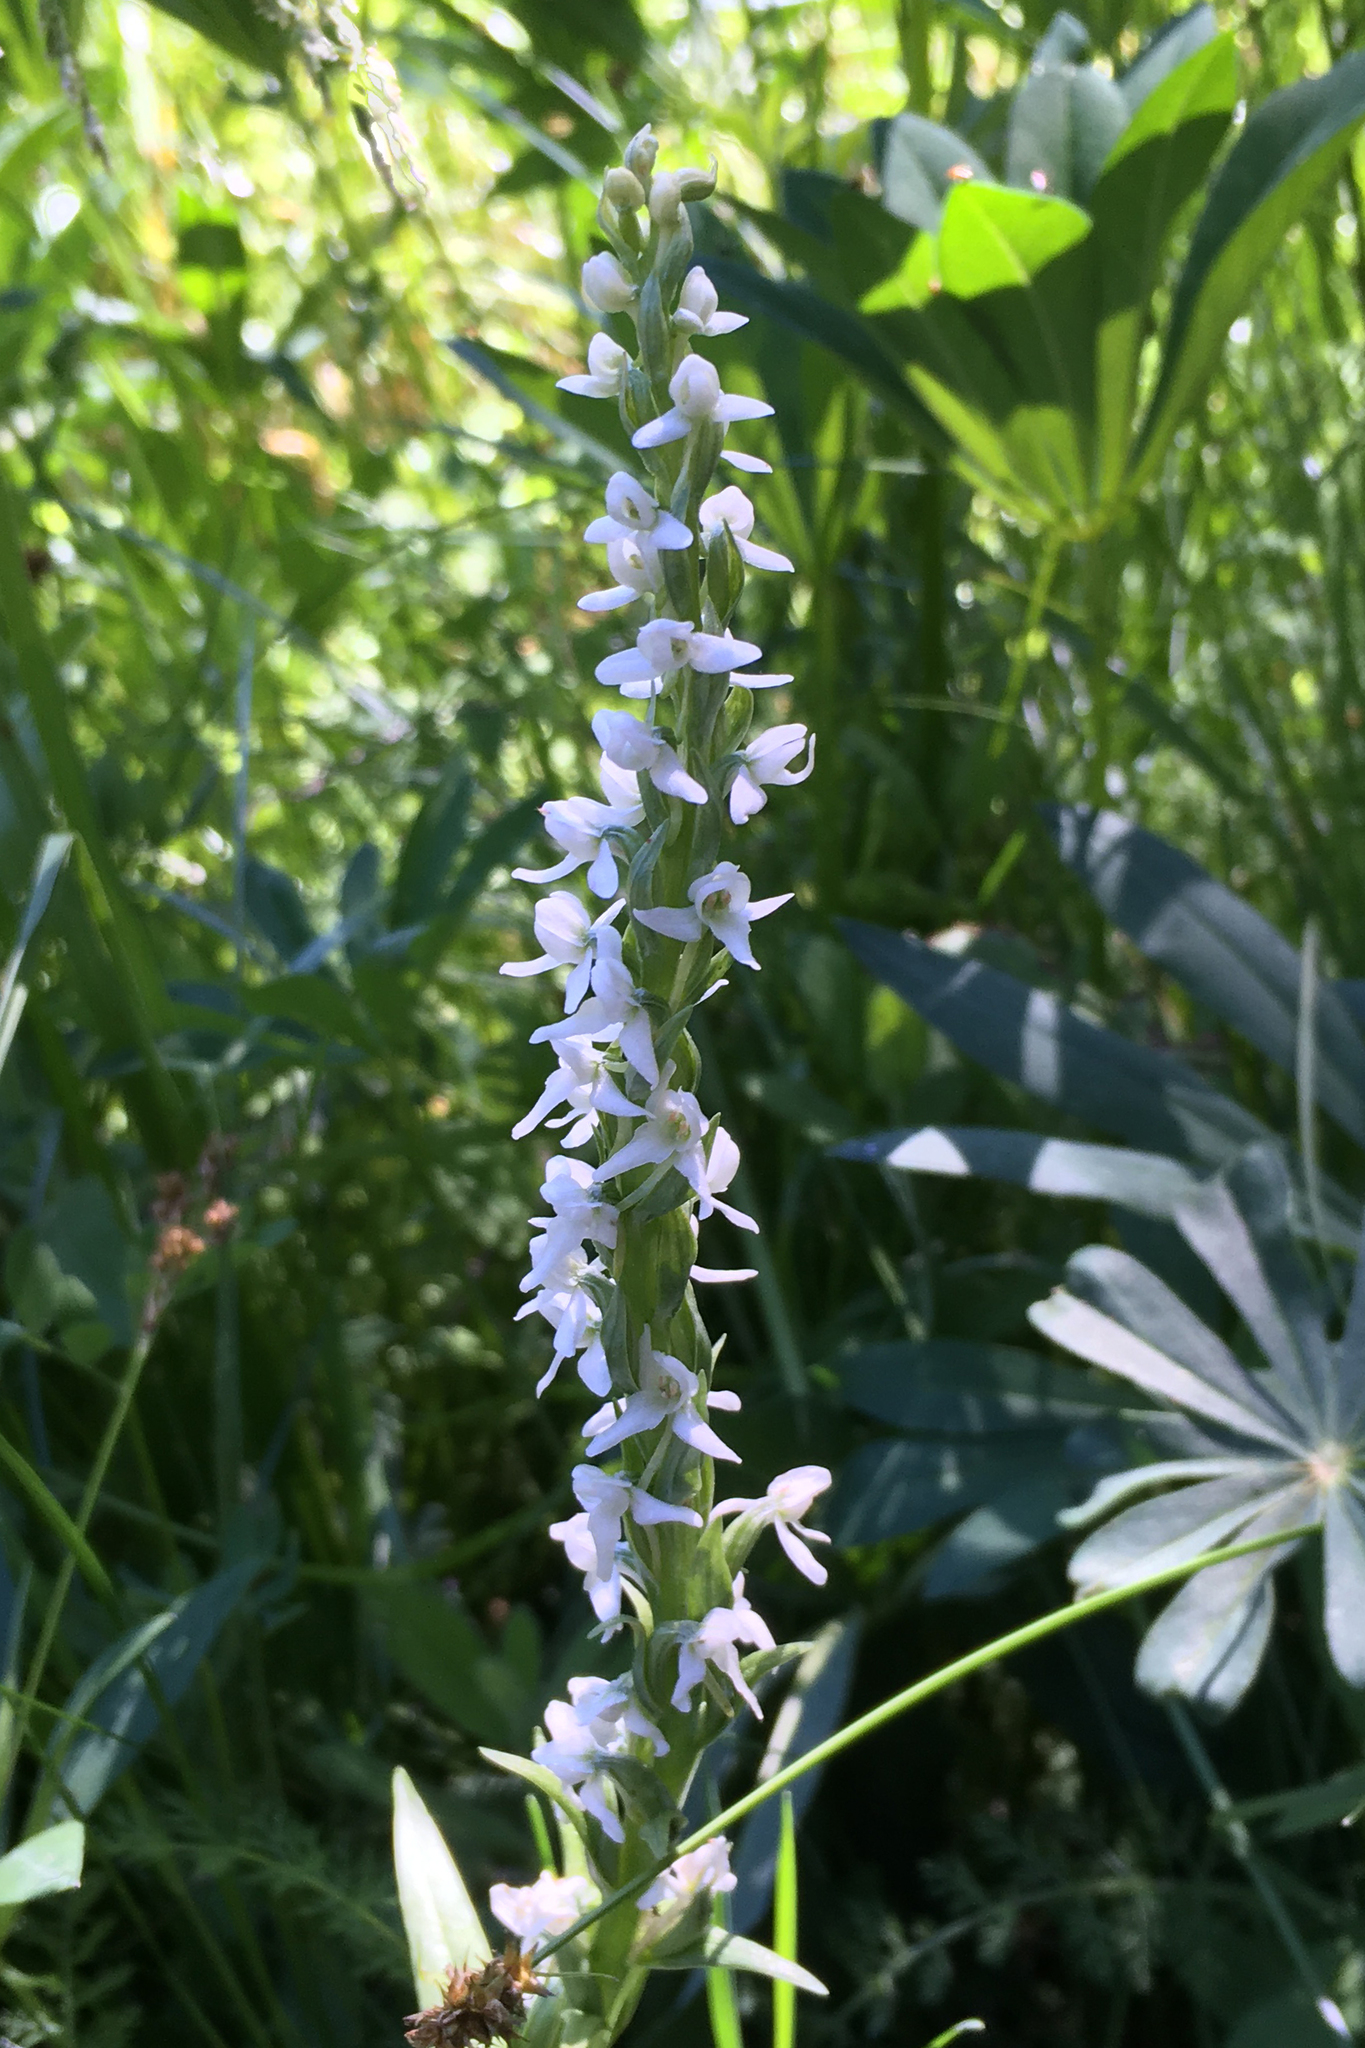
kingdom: Plantae
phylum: Tracheophyta
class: Liliopsida
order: Asparagales
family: Orchidaceae
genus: Platanthera
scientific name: Platanthera dilatata
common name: Bog candles
